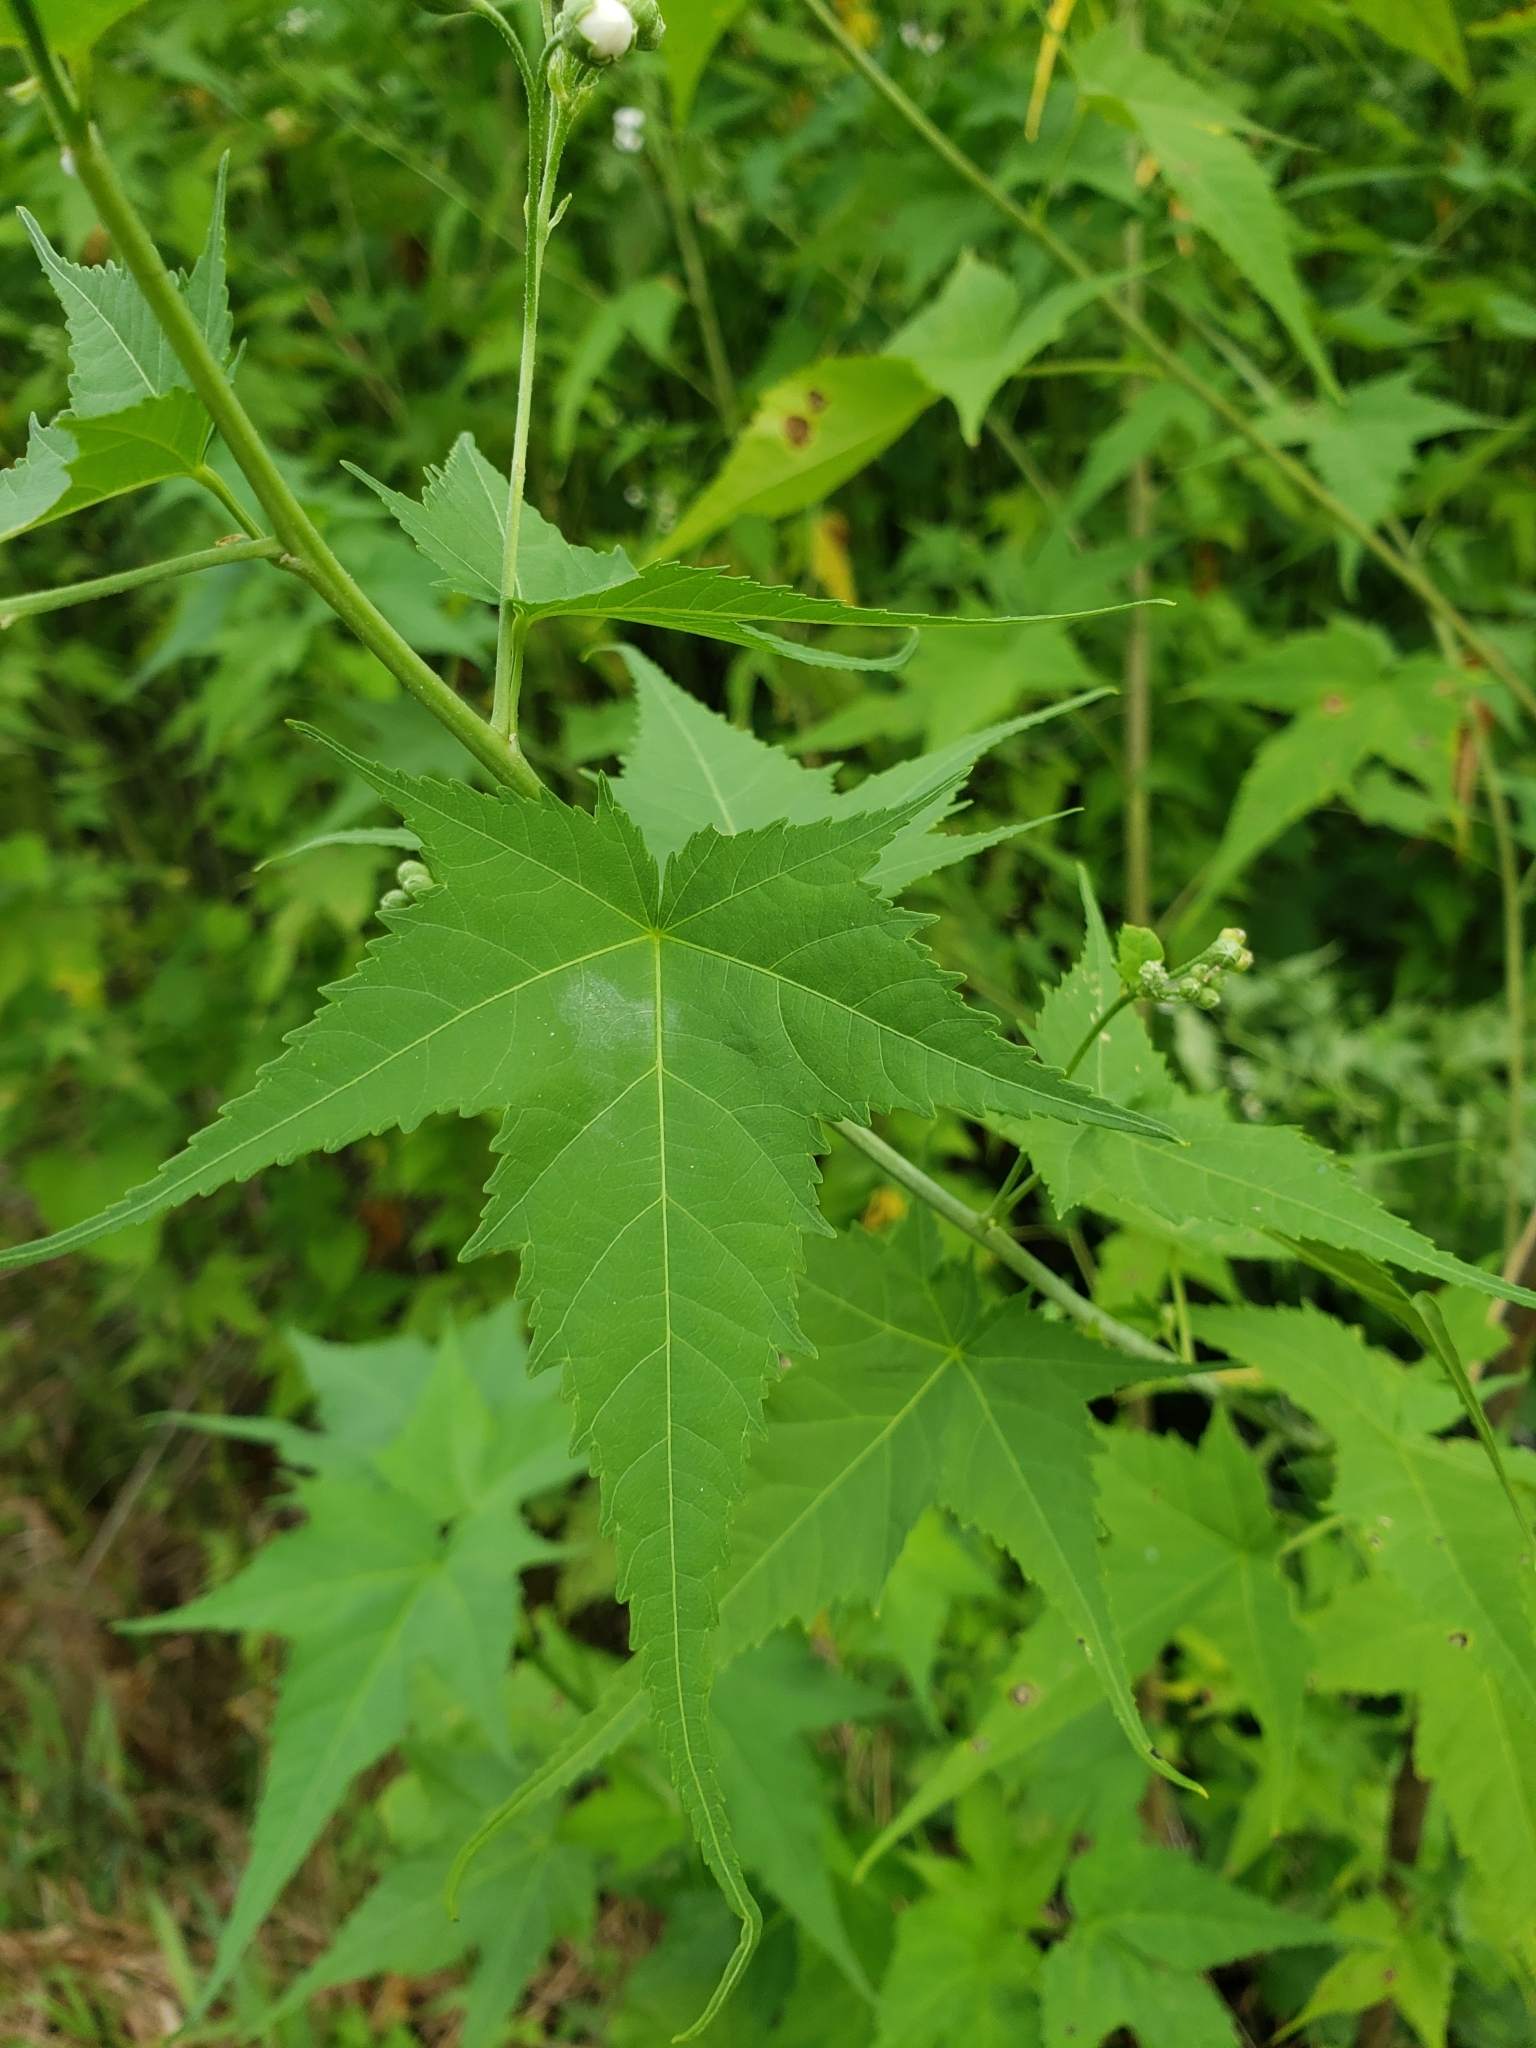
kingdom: Plantae
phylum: Tracheophyta
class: Magnoliopsida
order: Malvales
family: Malvaceae
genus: Ripariosida
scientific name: Ripariosida hermaphrodita
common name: Virginia fanpetals
